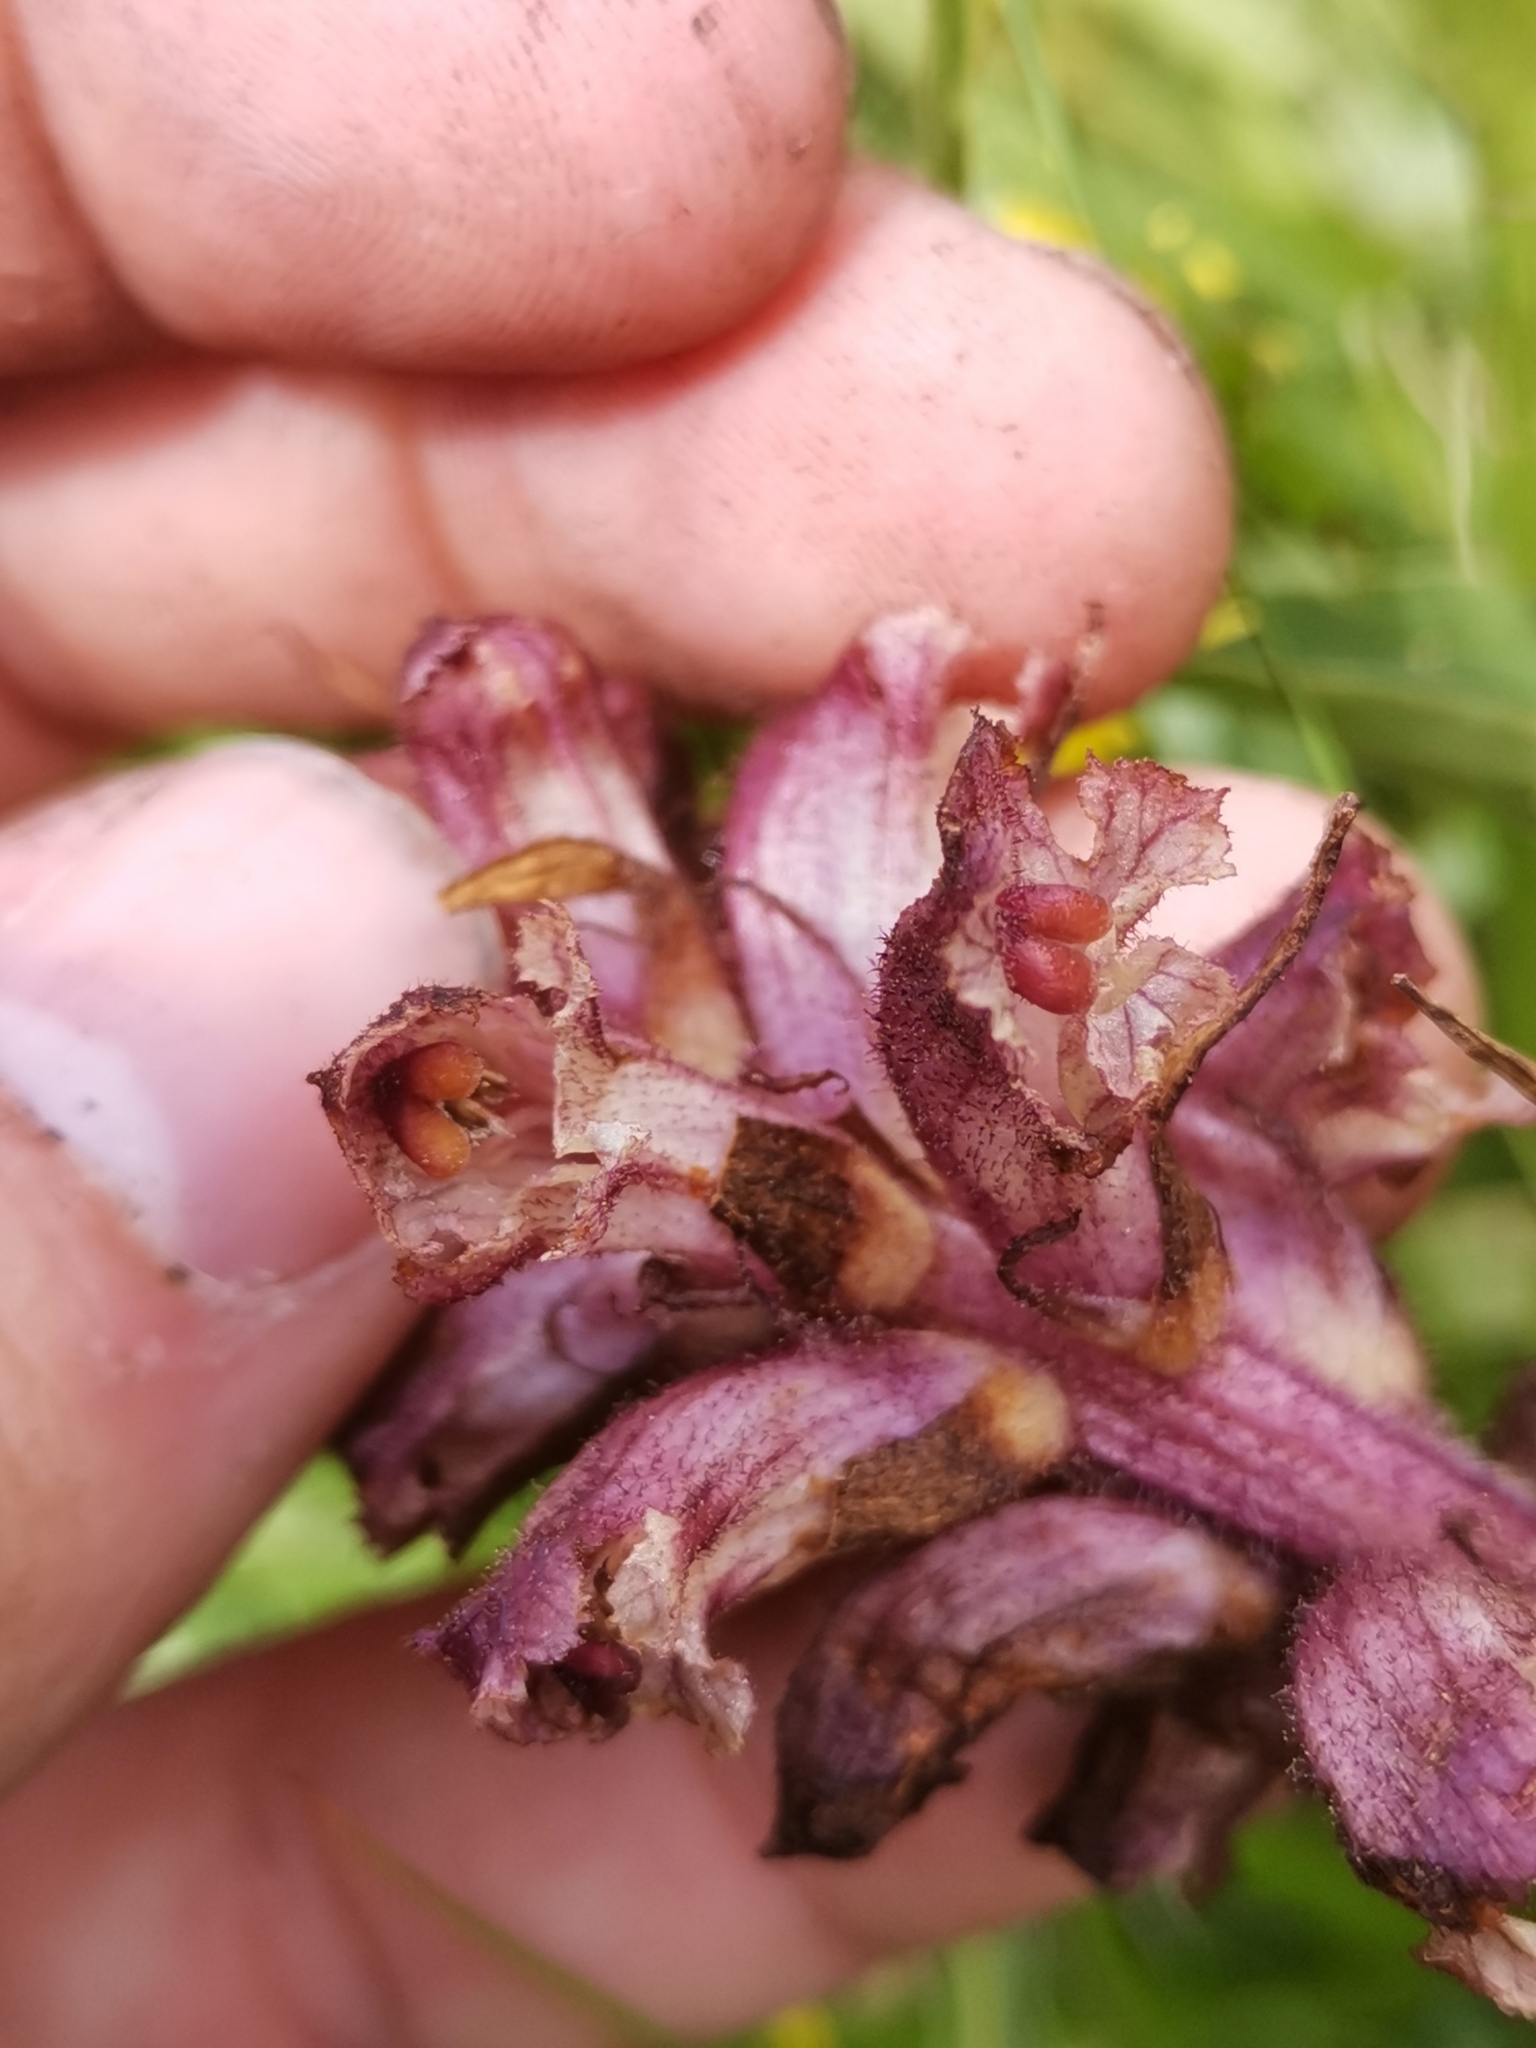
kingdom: Plantae
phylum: Tracheophyta
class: Magnoliopsida
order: Lamiales
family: Orobanchaceae
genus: Orobanche
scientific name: Orobanche pancicii
